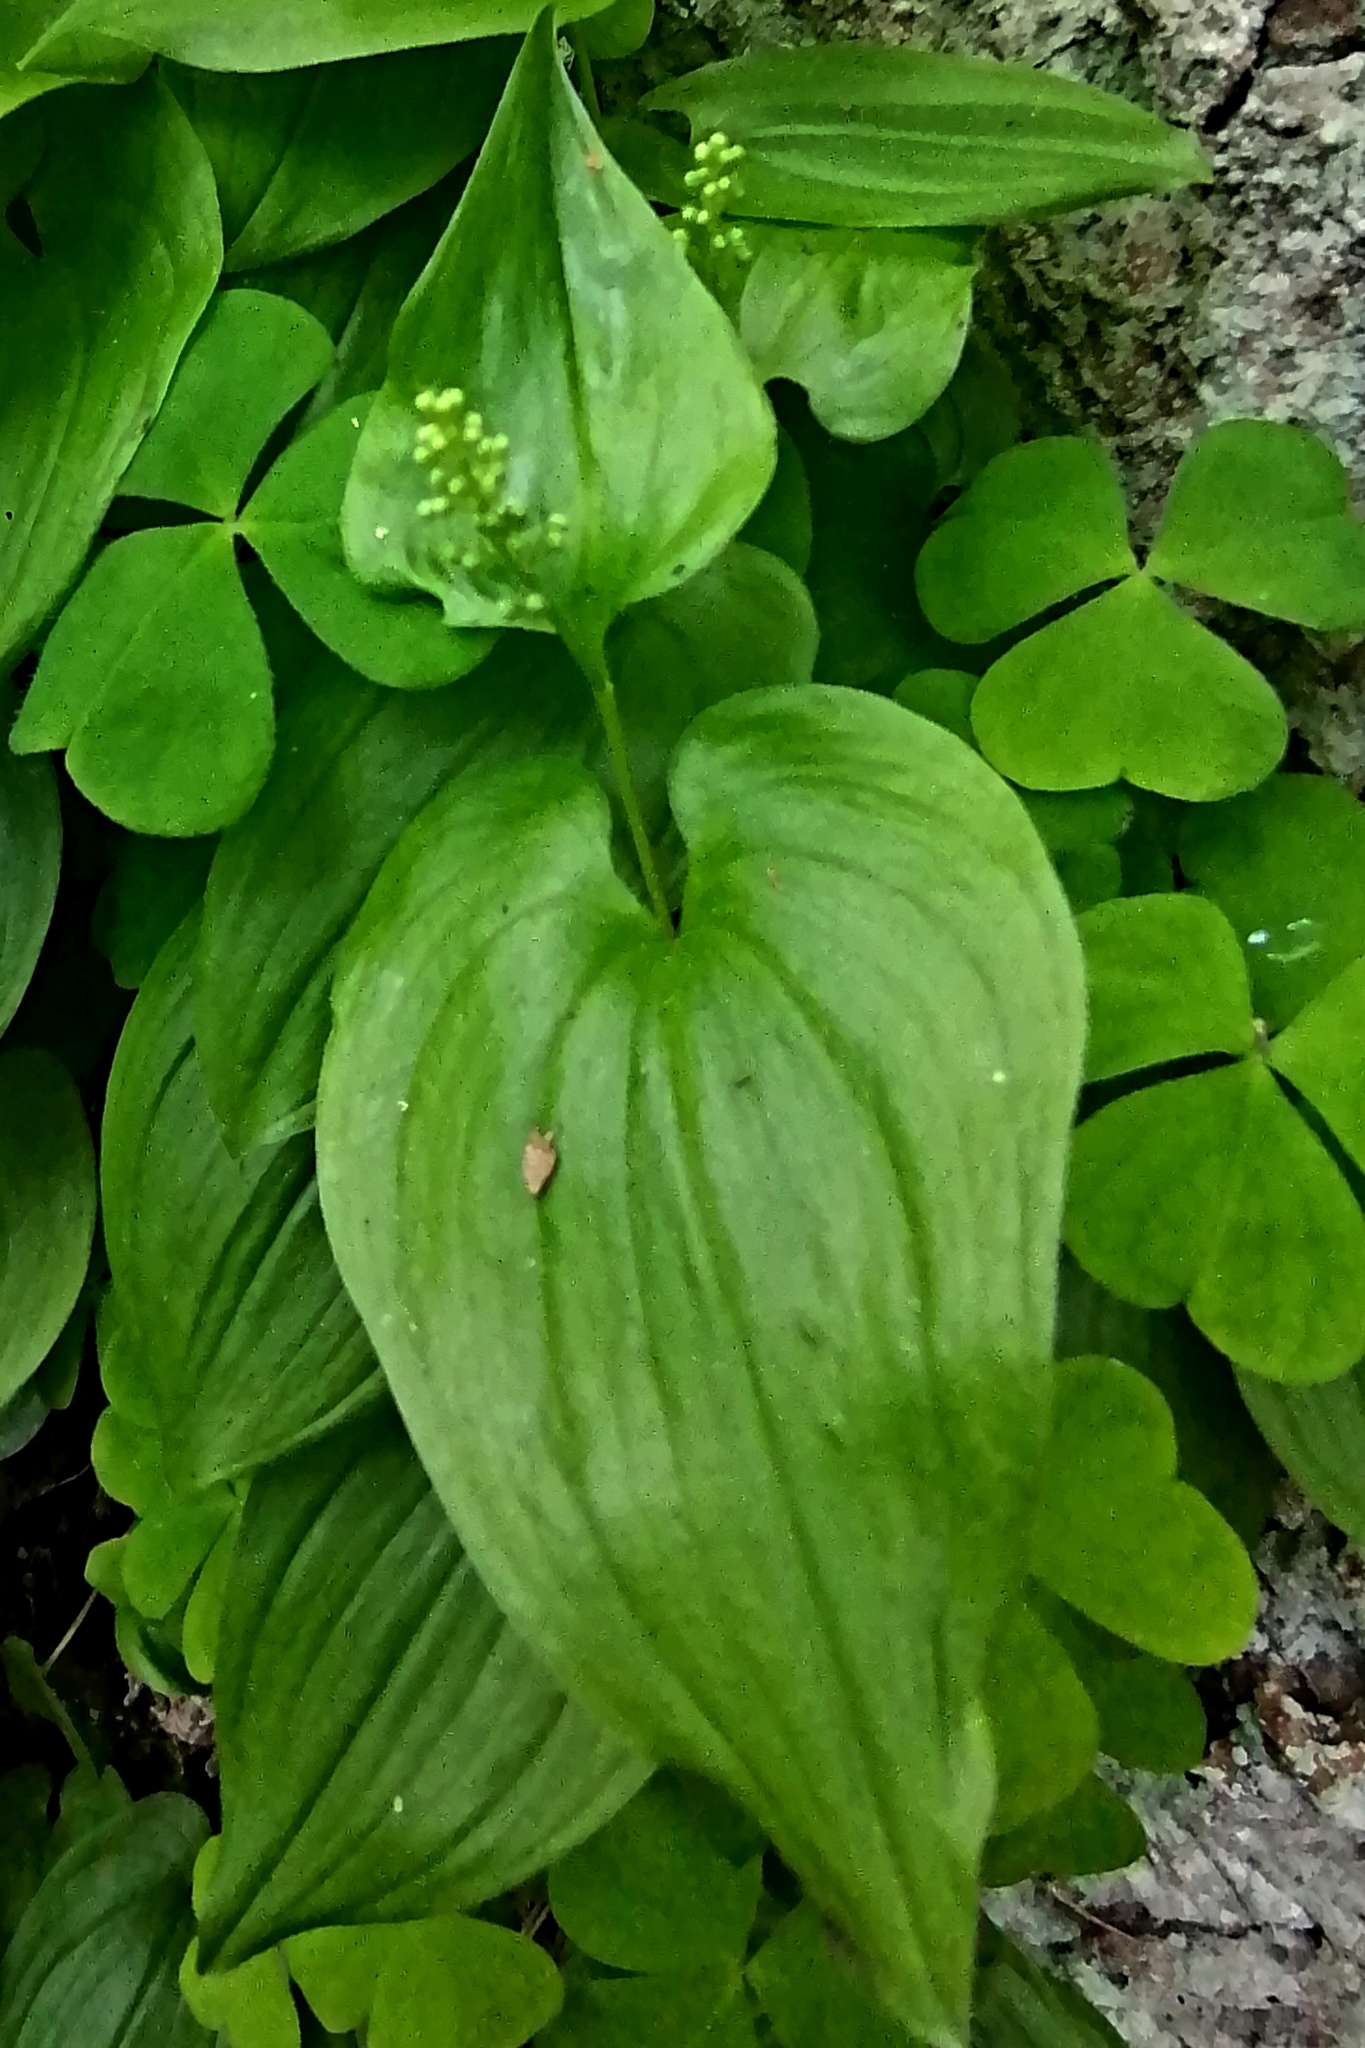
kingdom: Plantae
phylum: Tracheophyta
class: Liliopsida
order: Asparagales
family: Asparagaceae
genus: Maianthemum
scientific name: Maianthemum bifolium
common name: May lily
